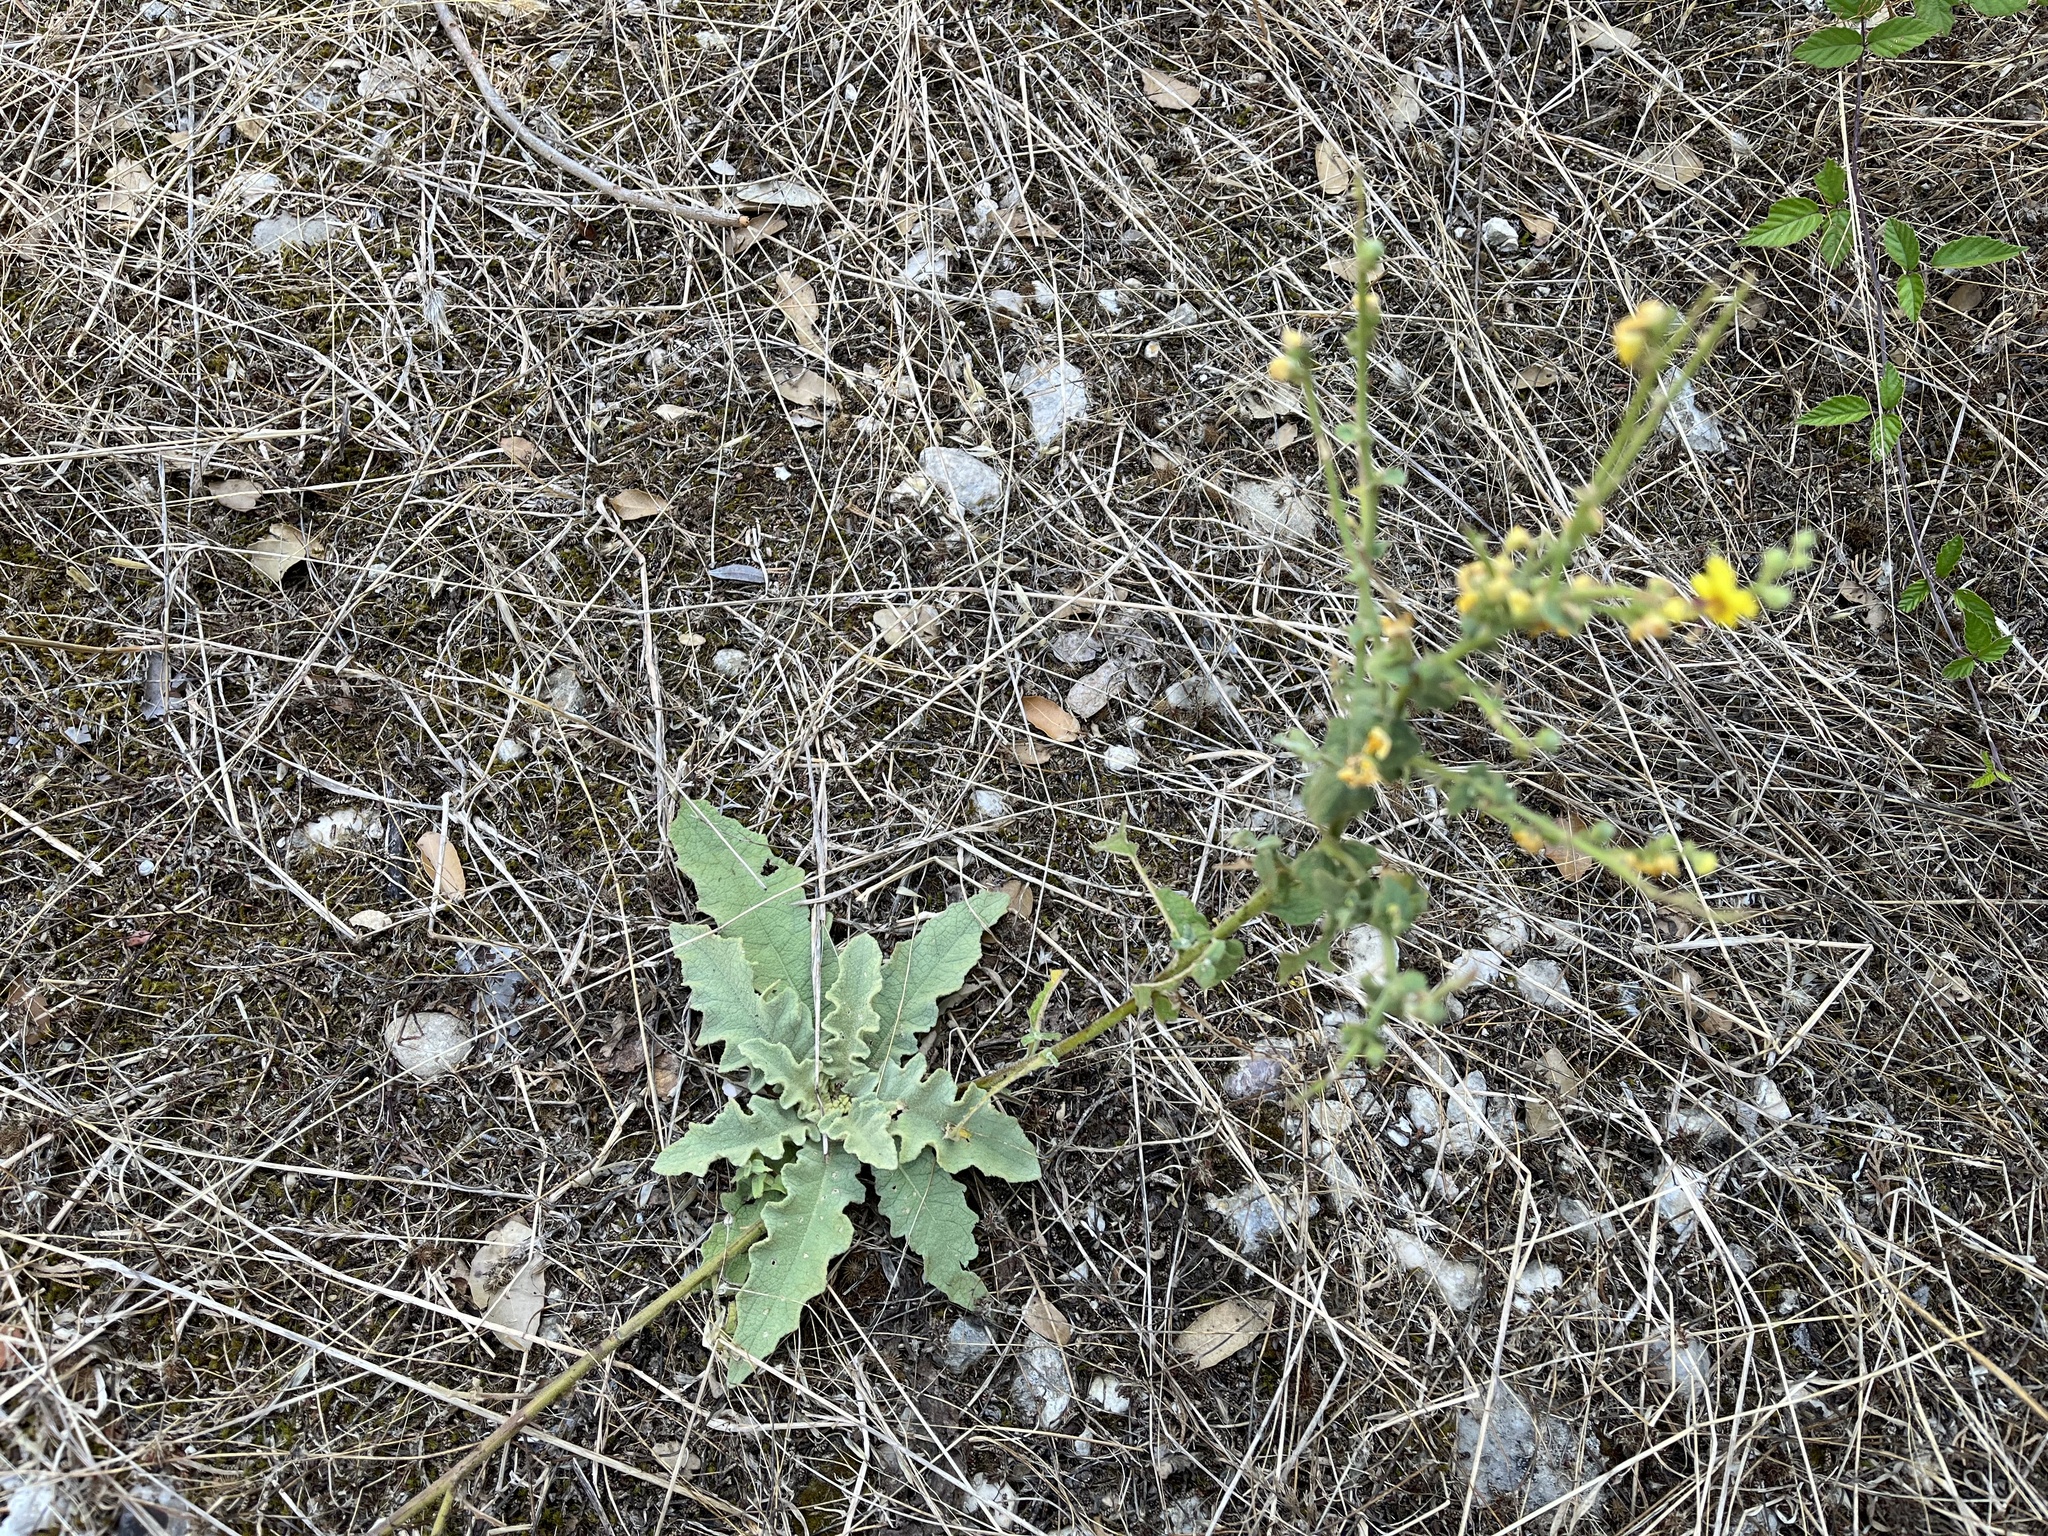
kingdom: Plantae
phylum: Tracheophyta
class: Magnoliopsida
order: Lamiales
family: Scrophulariaceae
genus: Verbascum
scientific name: Verbascum sinuatum
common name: Wavyleaf mullein
